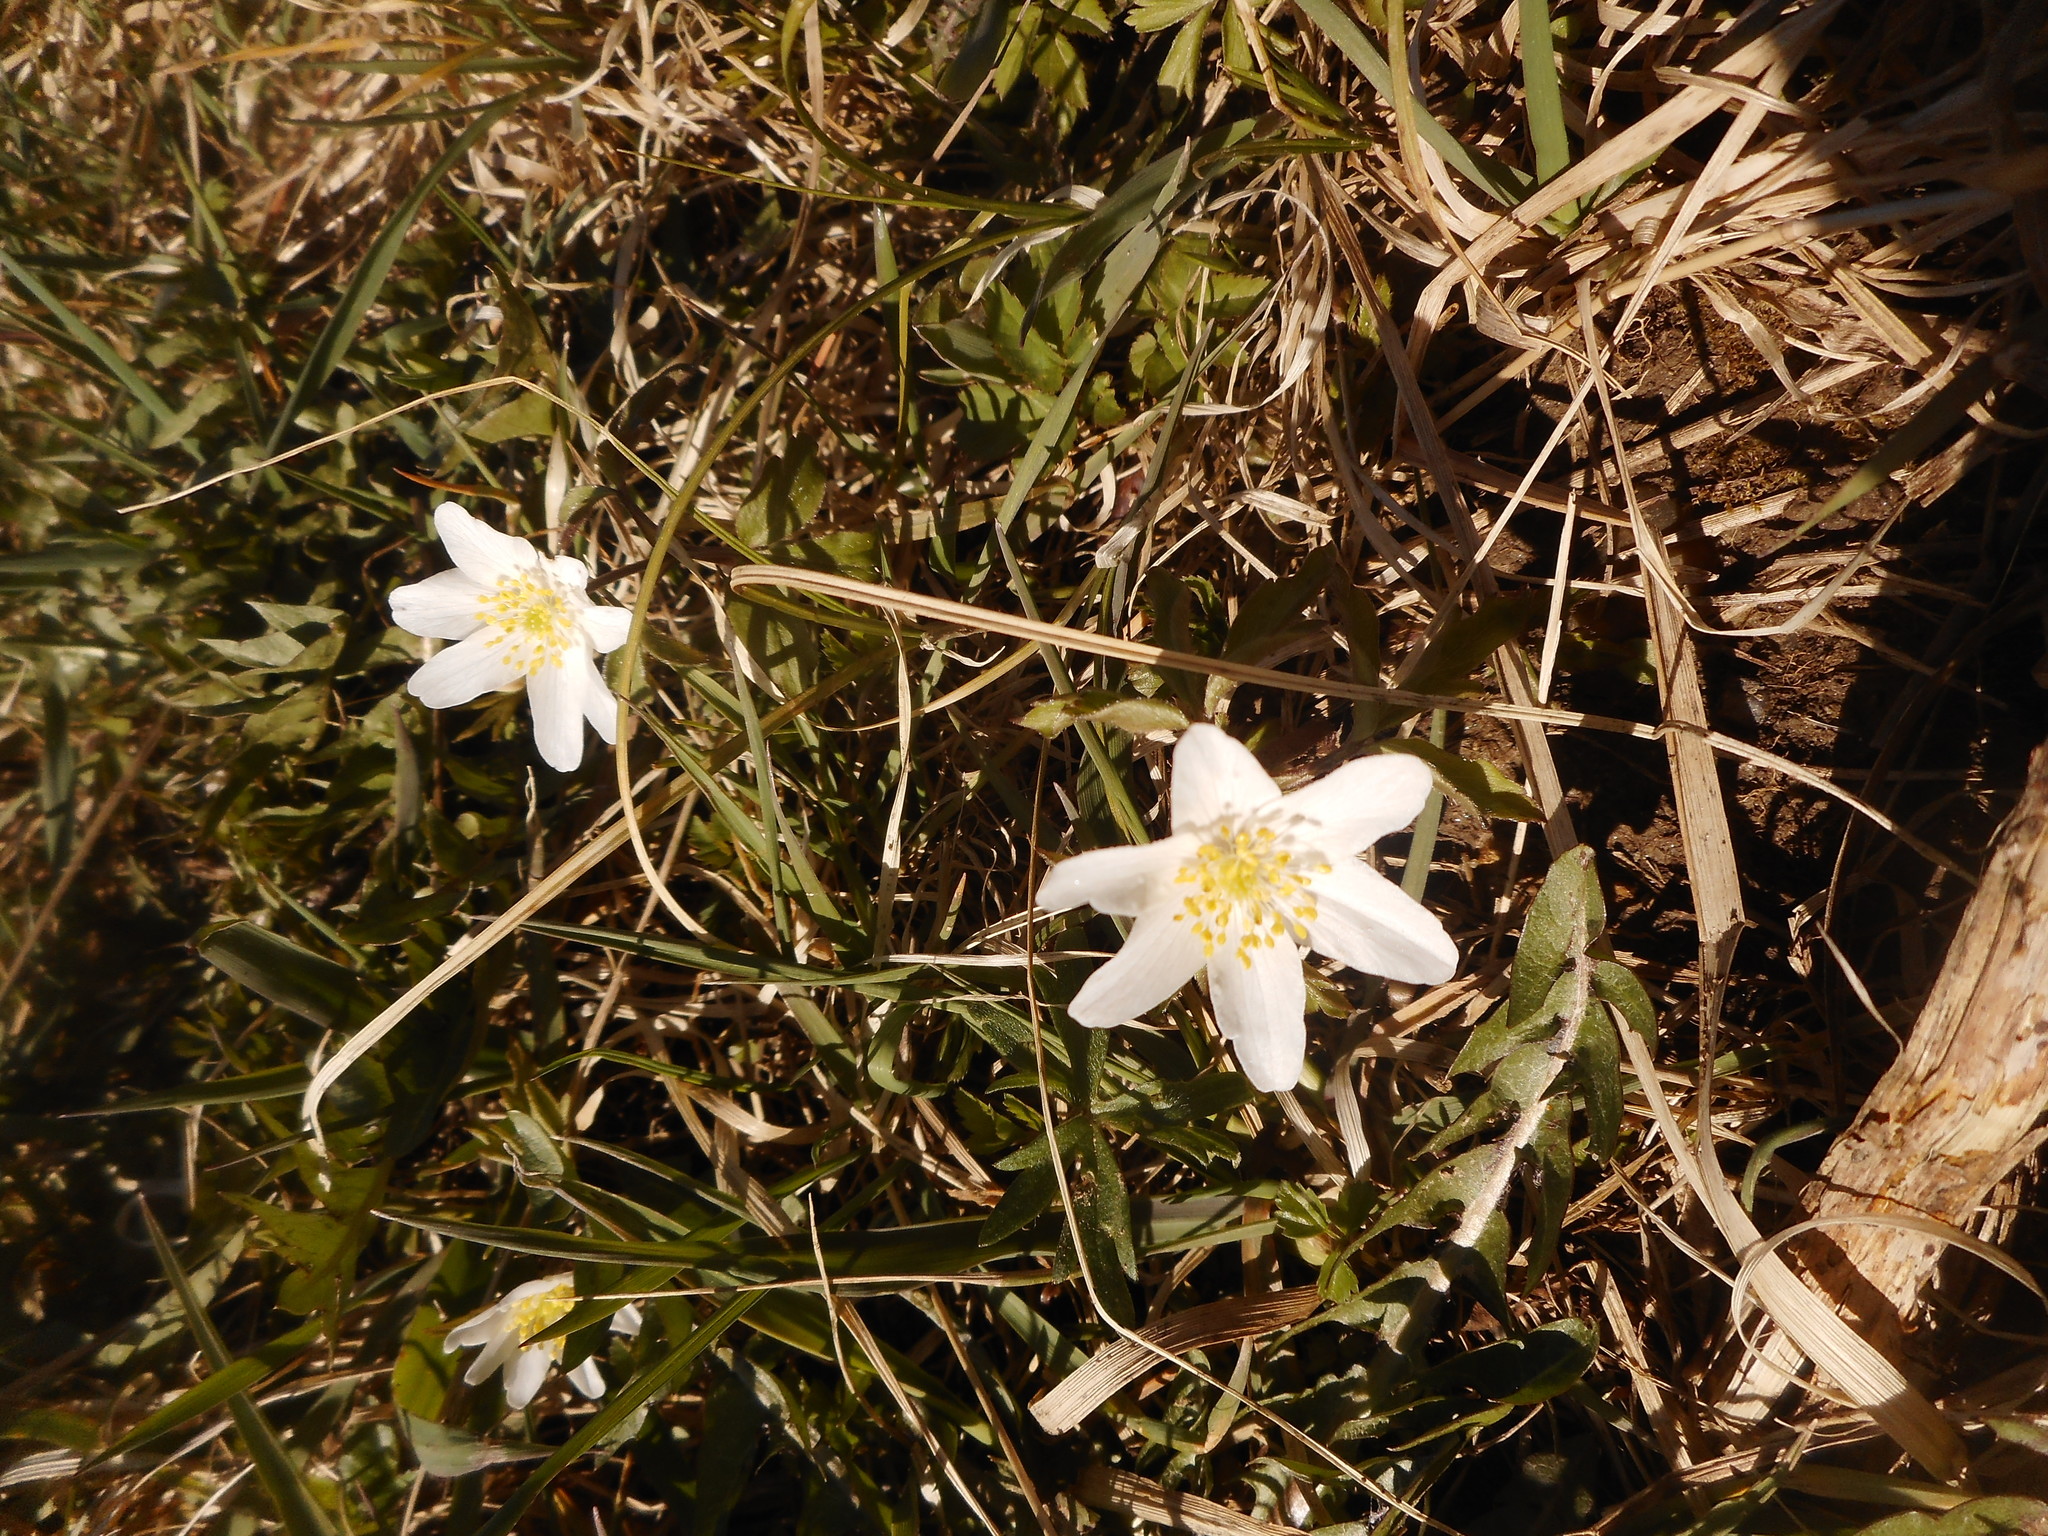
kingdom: Plantae
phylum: Tracheophyta
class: Magnoliopsida
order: Ranunculales
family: Ranunculaceae
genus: Anemone
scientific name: Anemone nemorosa
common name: Wood anemone
